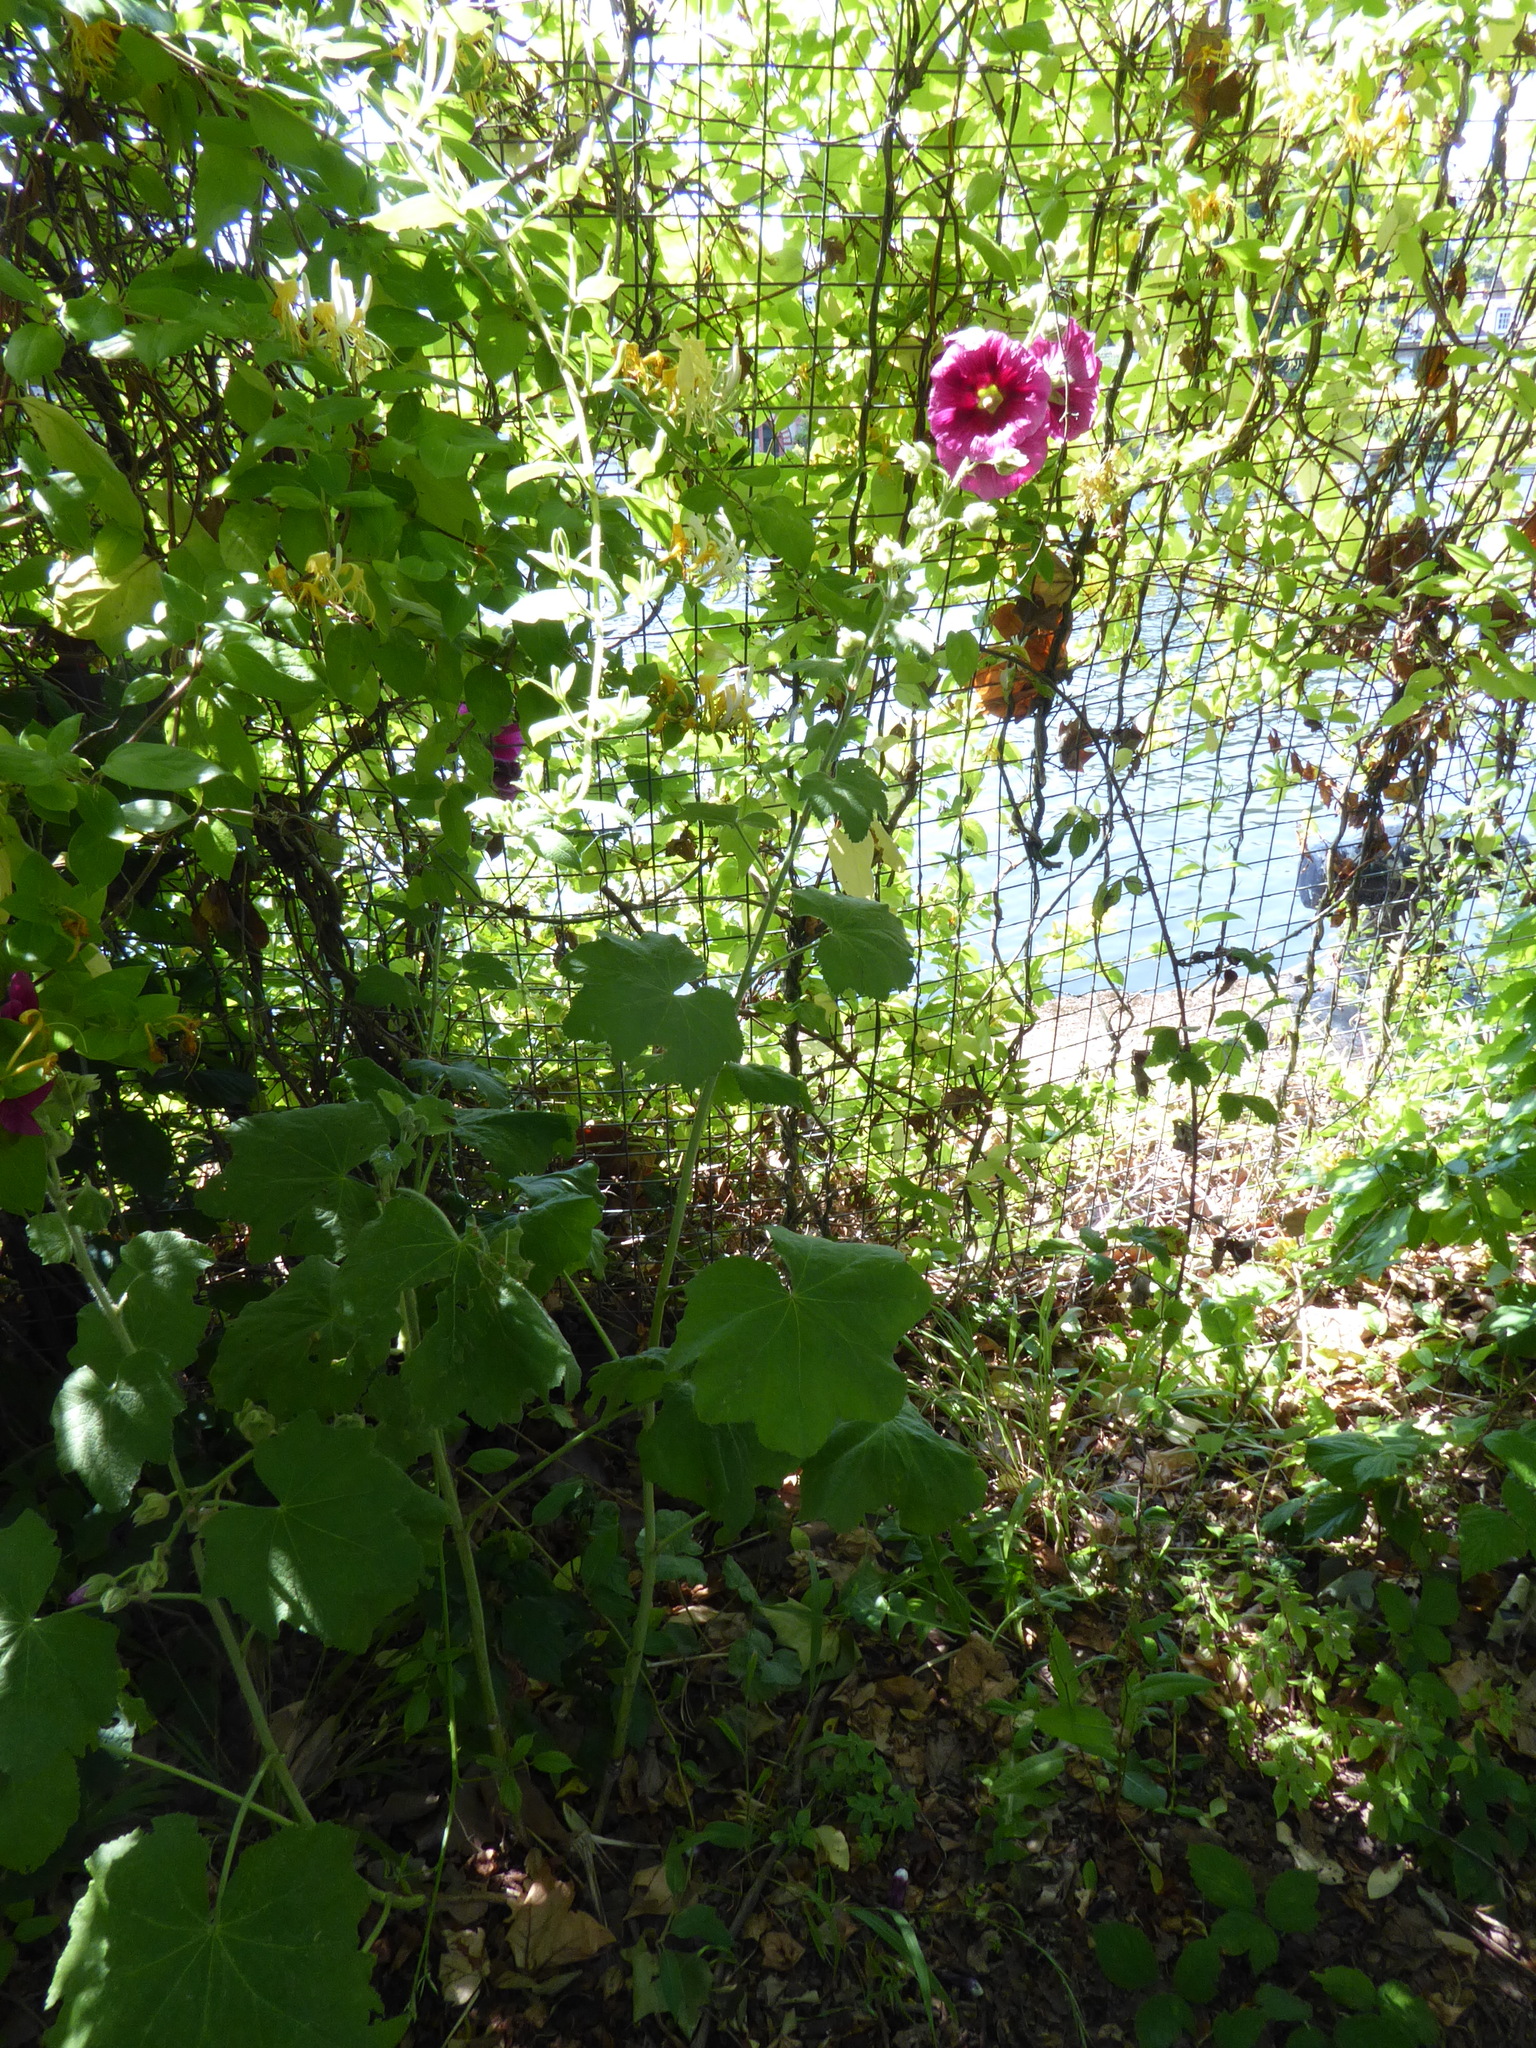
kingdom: Plantae
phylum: Tracheophyta
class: Magnoliopsida
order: Malvales
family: Malvaceae
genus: Alcea
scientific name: Alcea rosea
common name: Hollyhock
